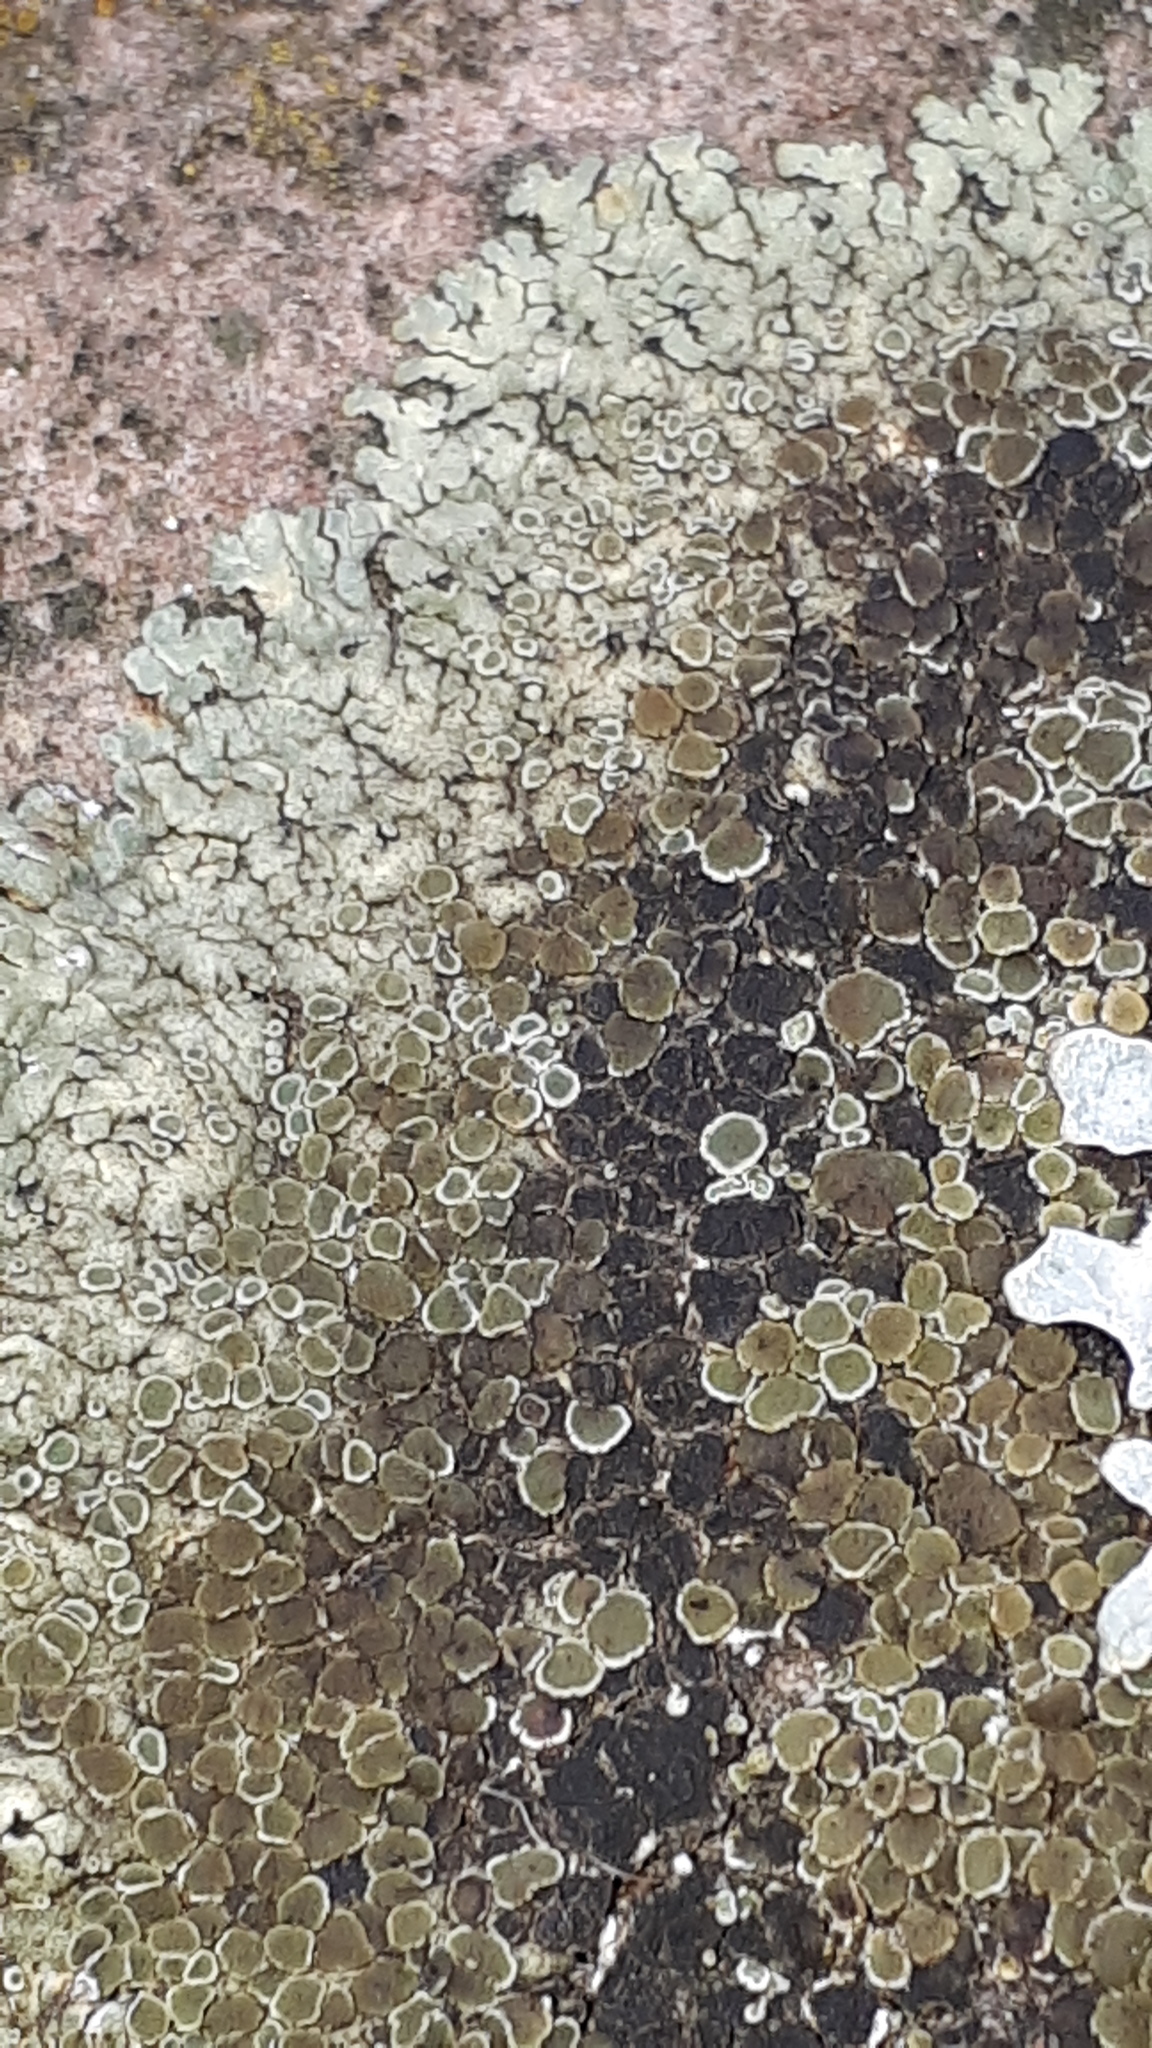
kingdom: Fungi
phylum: Ascomycota
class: Lecanoromycetes
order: Lecanorales
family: Lecanoraceae
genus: Protoparmeliopsis
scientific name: Protoparmeliopsis muralis
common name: Stonewall rim lichen
